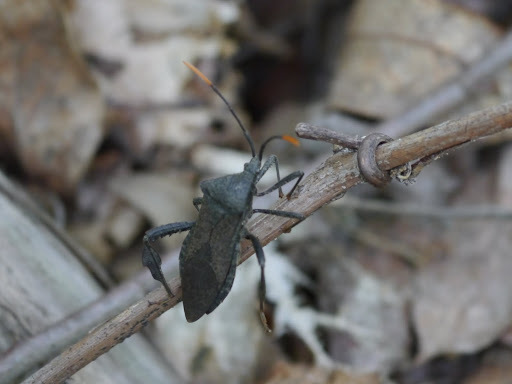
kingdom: Animalia
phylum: Arthropoda
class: Insecta
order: Hemiptera
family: Coreidae
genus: Acanthocephala
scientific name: Acanthocephala terminalis
